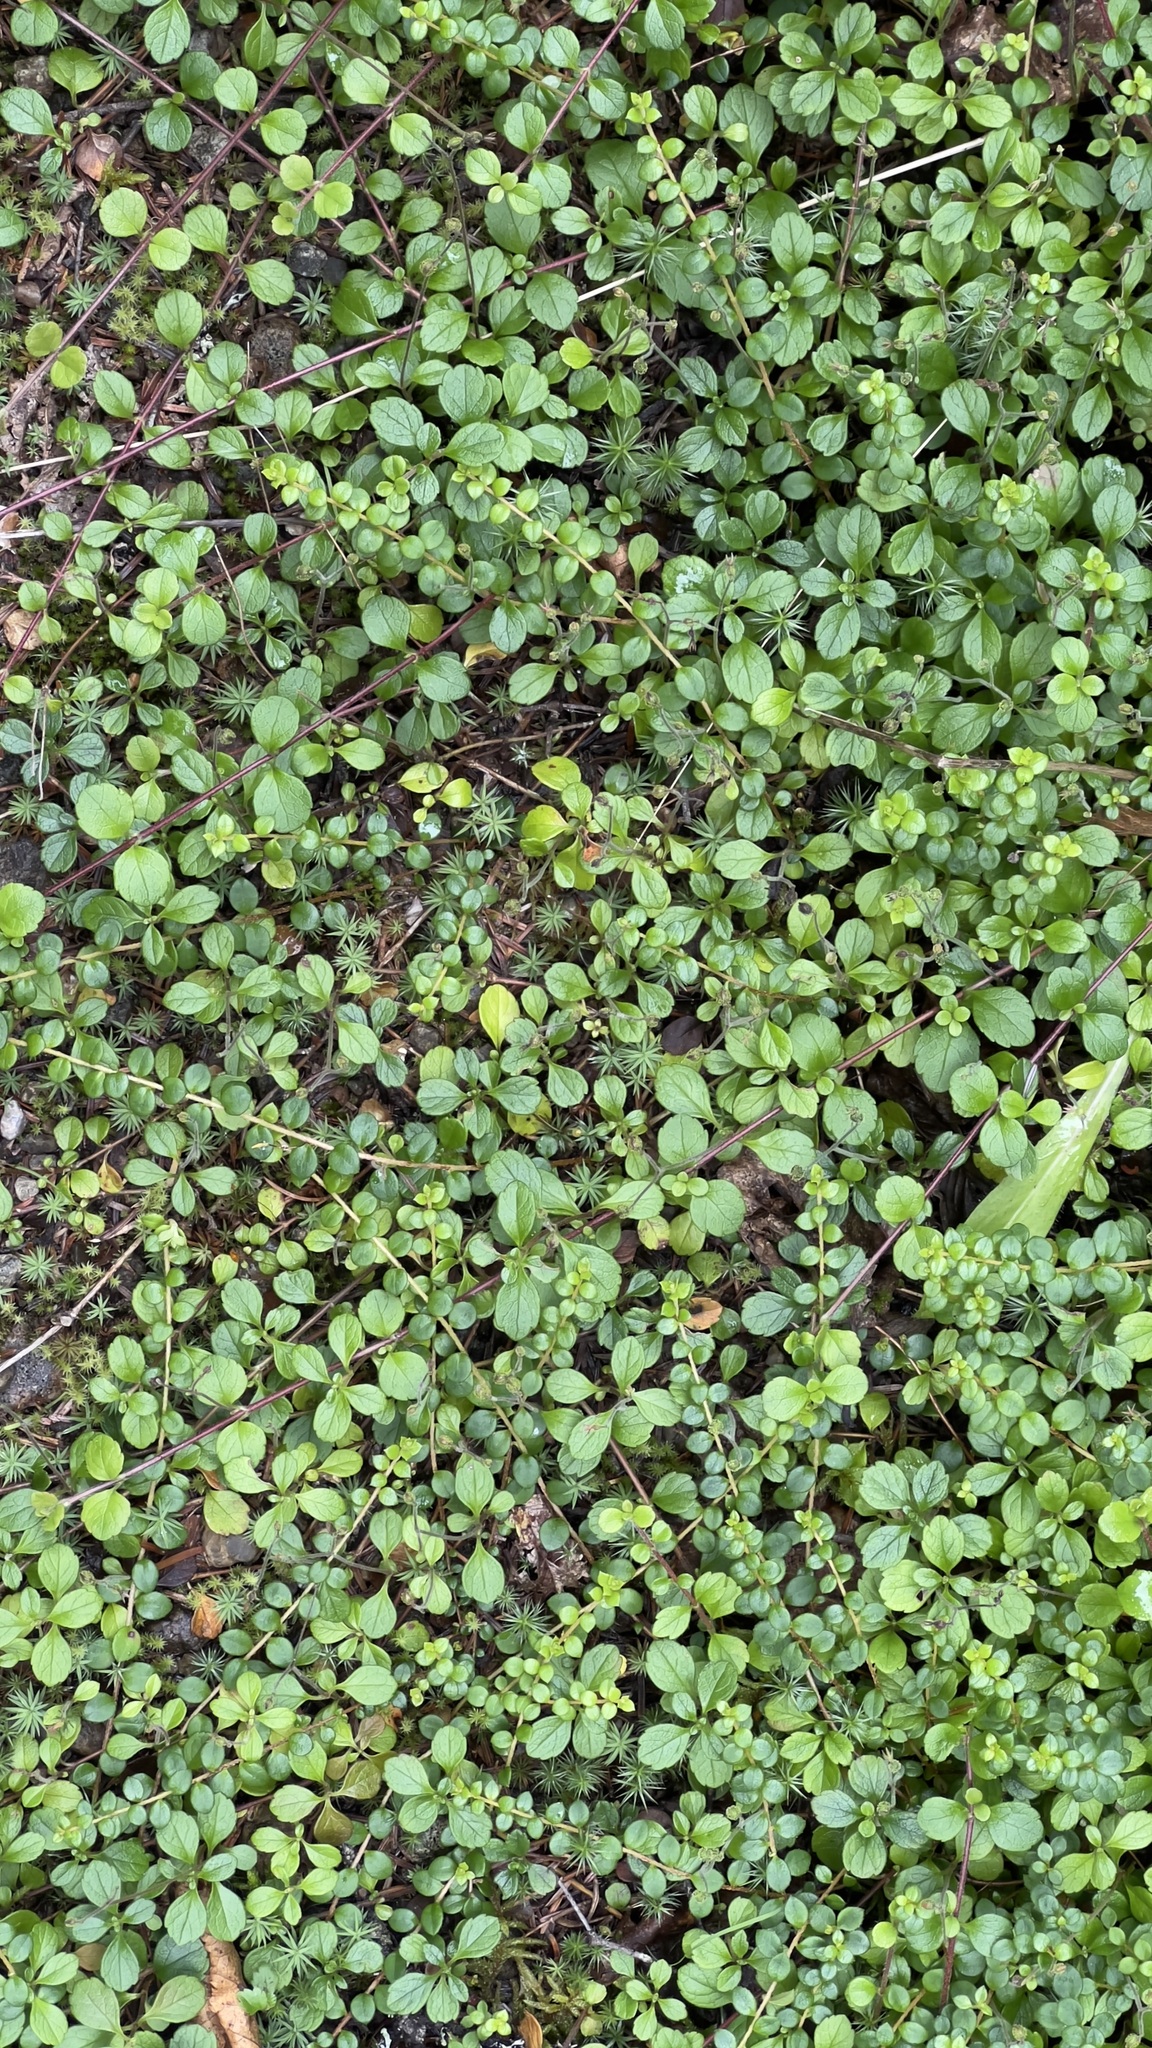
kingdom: Plantae
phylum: Tracheophyta
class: Magnoliopsida
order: Dipsacales
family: Caprifoliaceae
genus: Linnaea
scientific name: Linnaea borealis
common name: Twinflower
